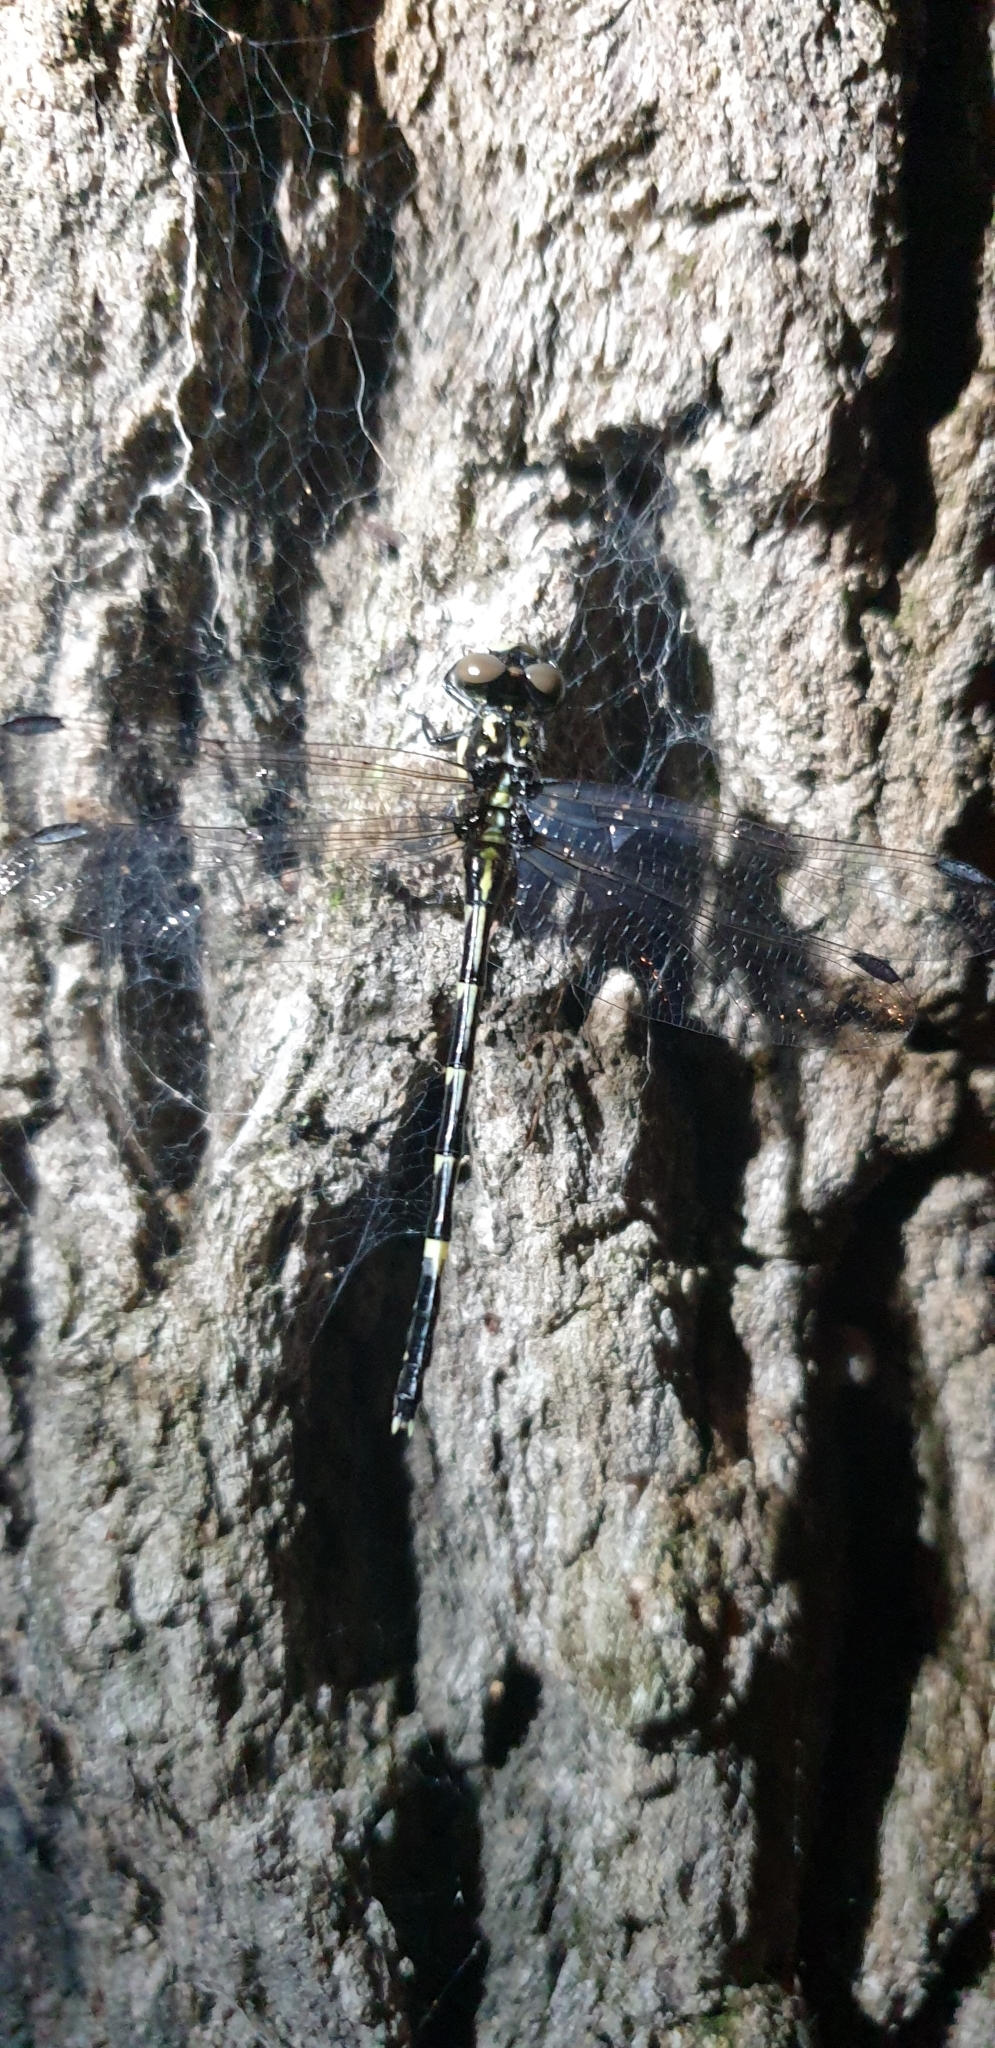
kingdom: Animalia
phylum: Arthropoda
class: Insecta
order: Odonata
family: Gomphidae
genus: Austroepigomphus
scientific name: Austroepigomphus praeruptus
